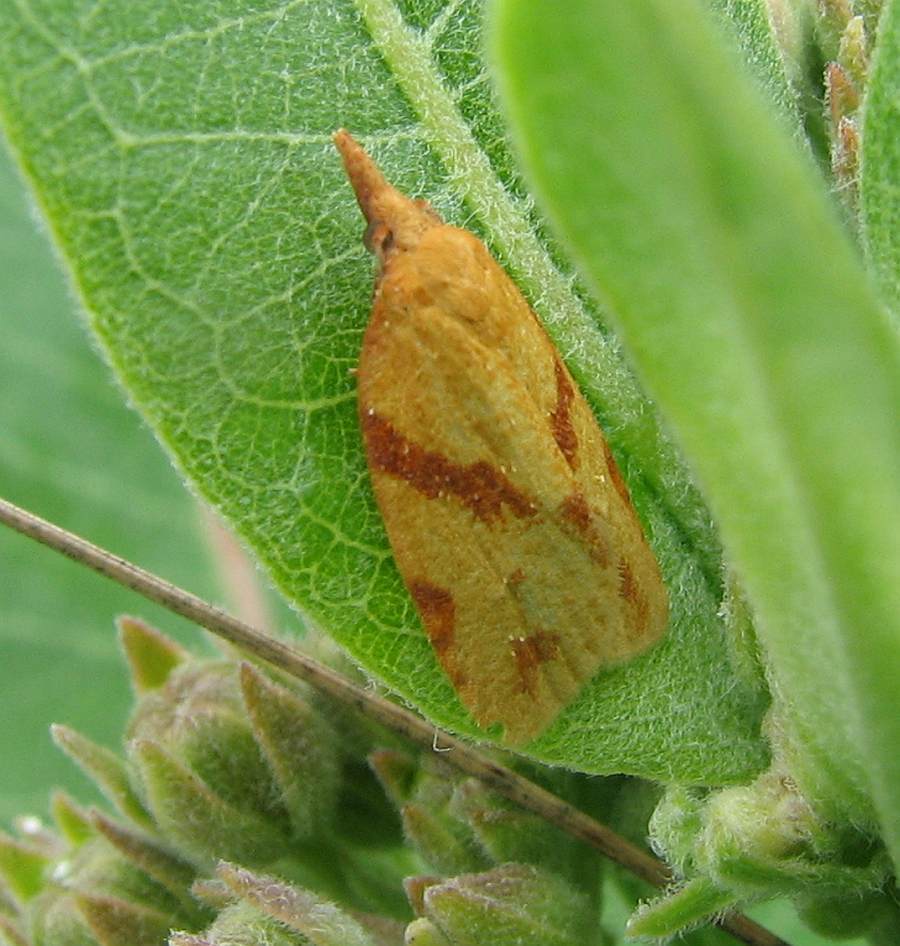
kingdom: Animalia
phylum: Arthropoda
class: Insecta
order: Lepidoptera
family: Tortricidae
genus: Sparganothis
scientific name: Sparganothis unifasciana
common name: One-lined sparganothis moth
